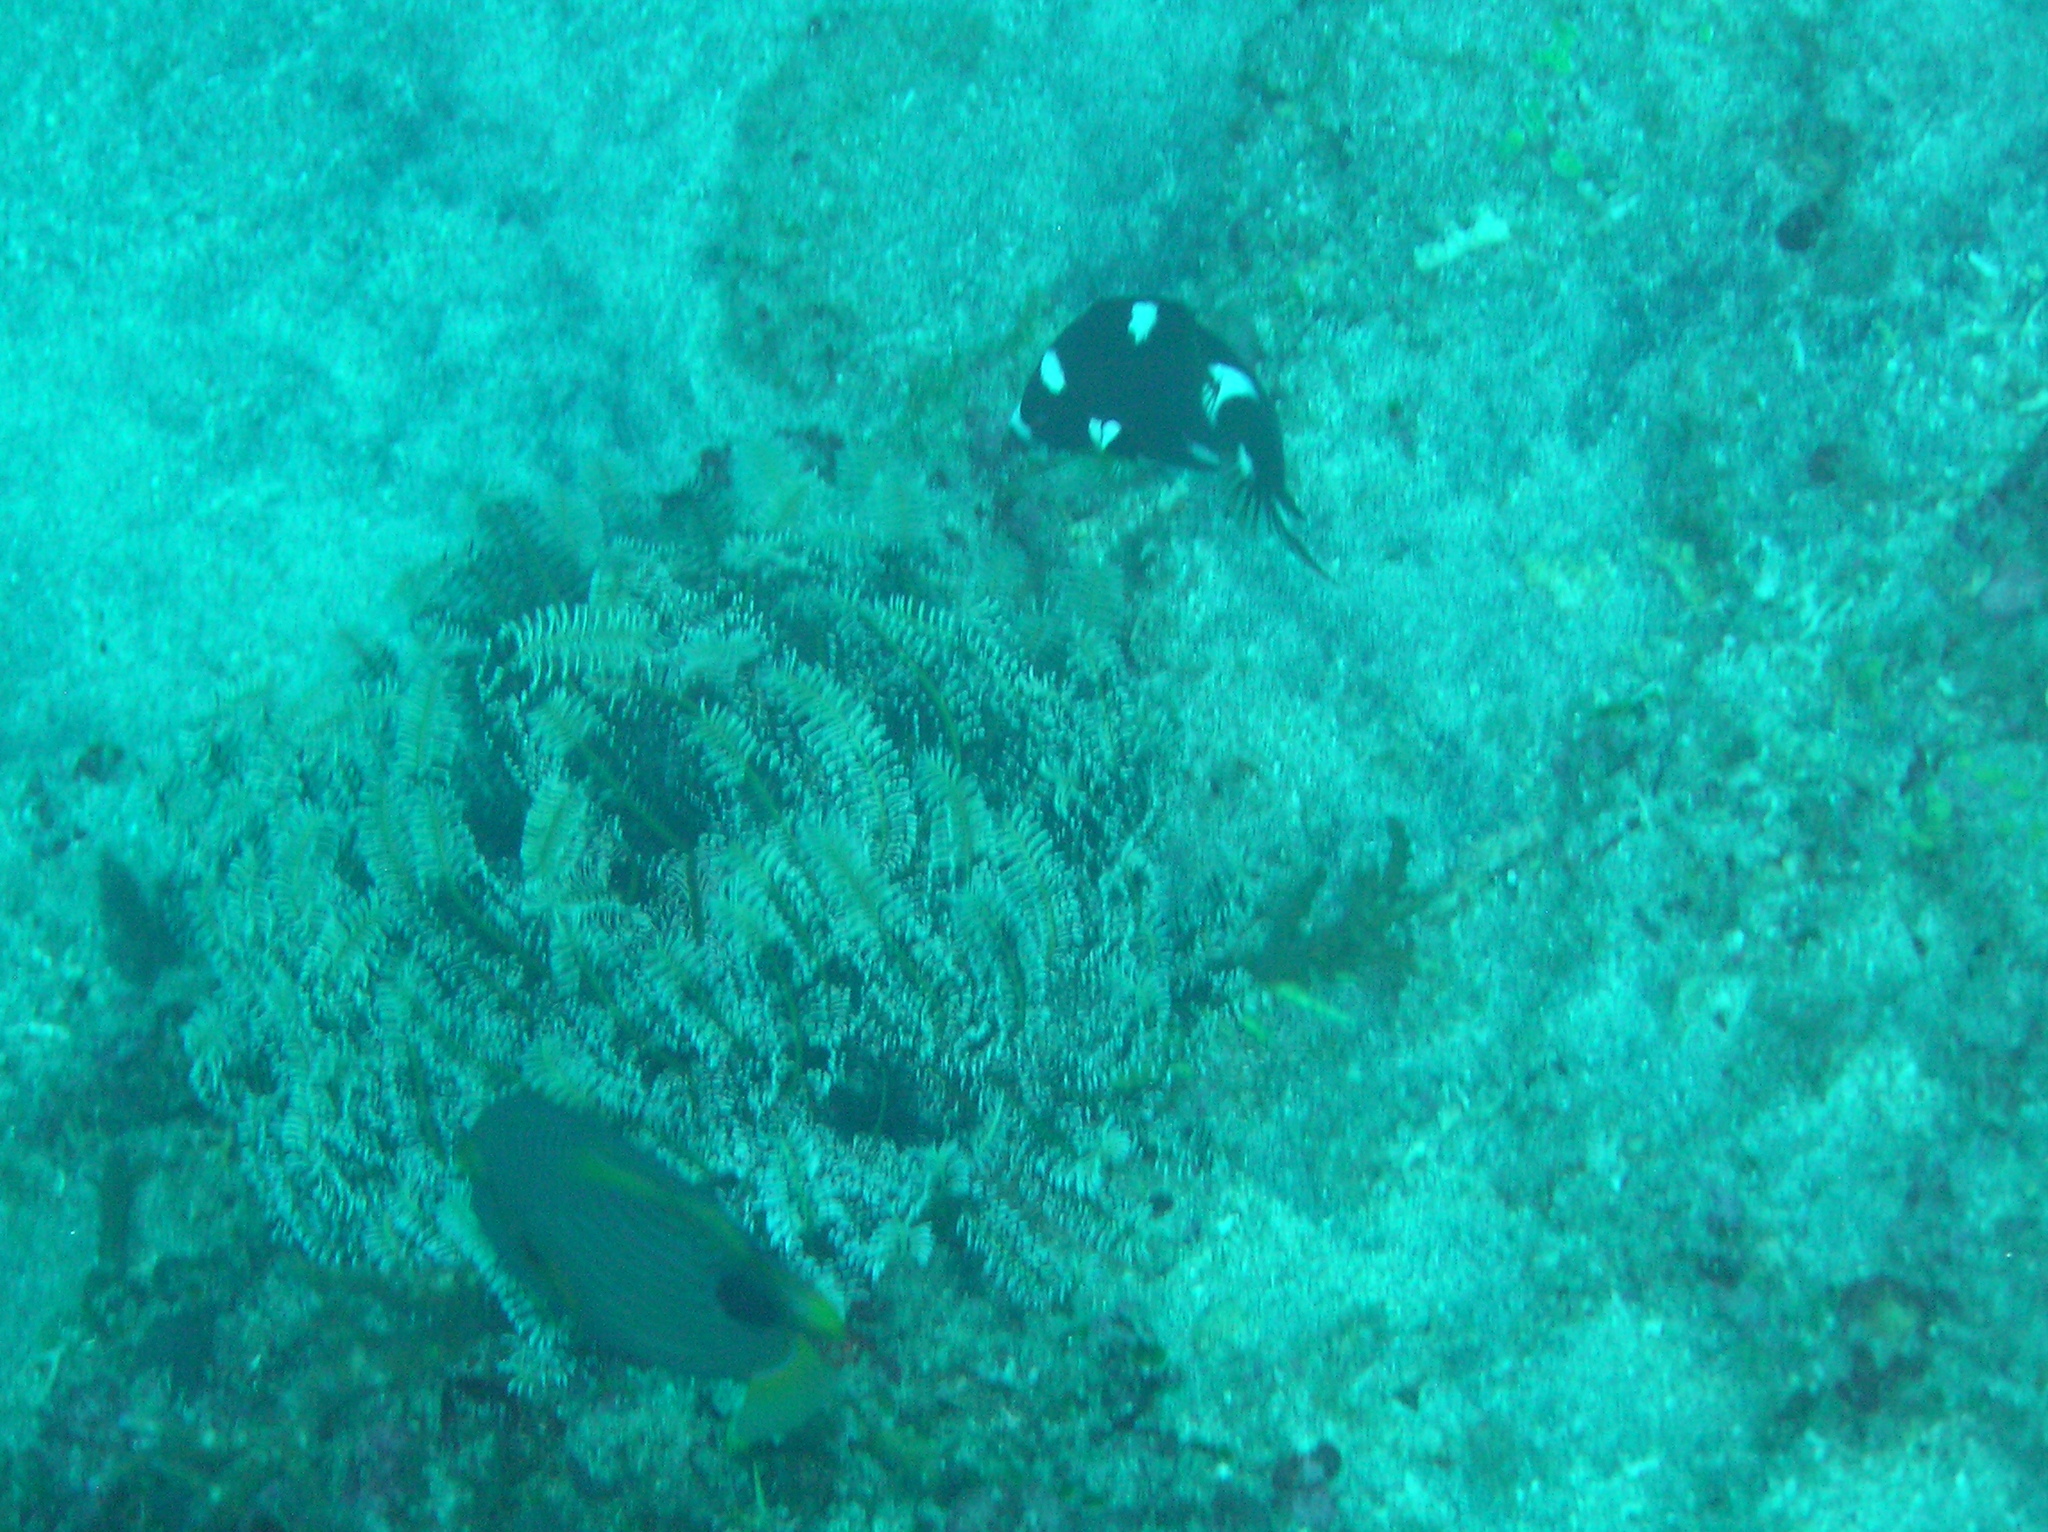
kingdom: Animalia
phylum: Chordata
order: Perciformes
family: Labridae
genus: Bodianus
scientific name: Bodianus axillaris
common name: Axilspot hogfish
